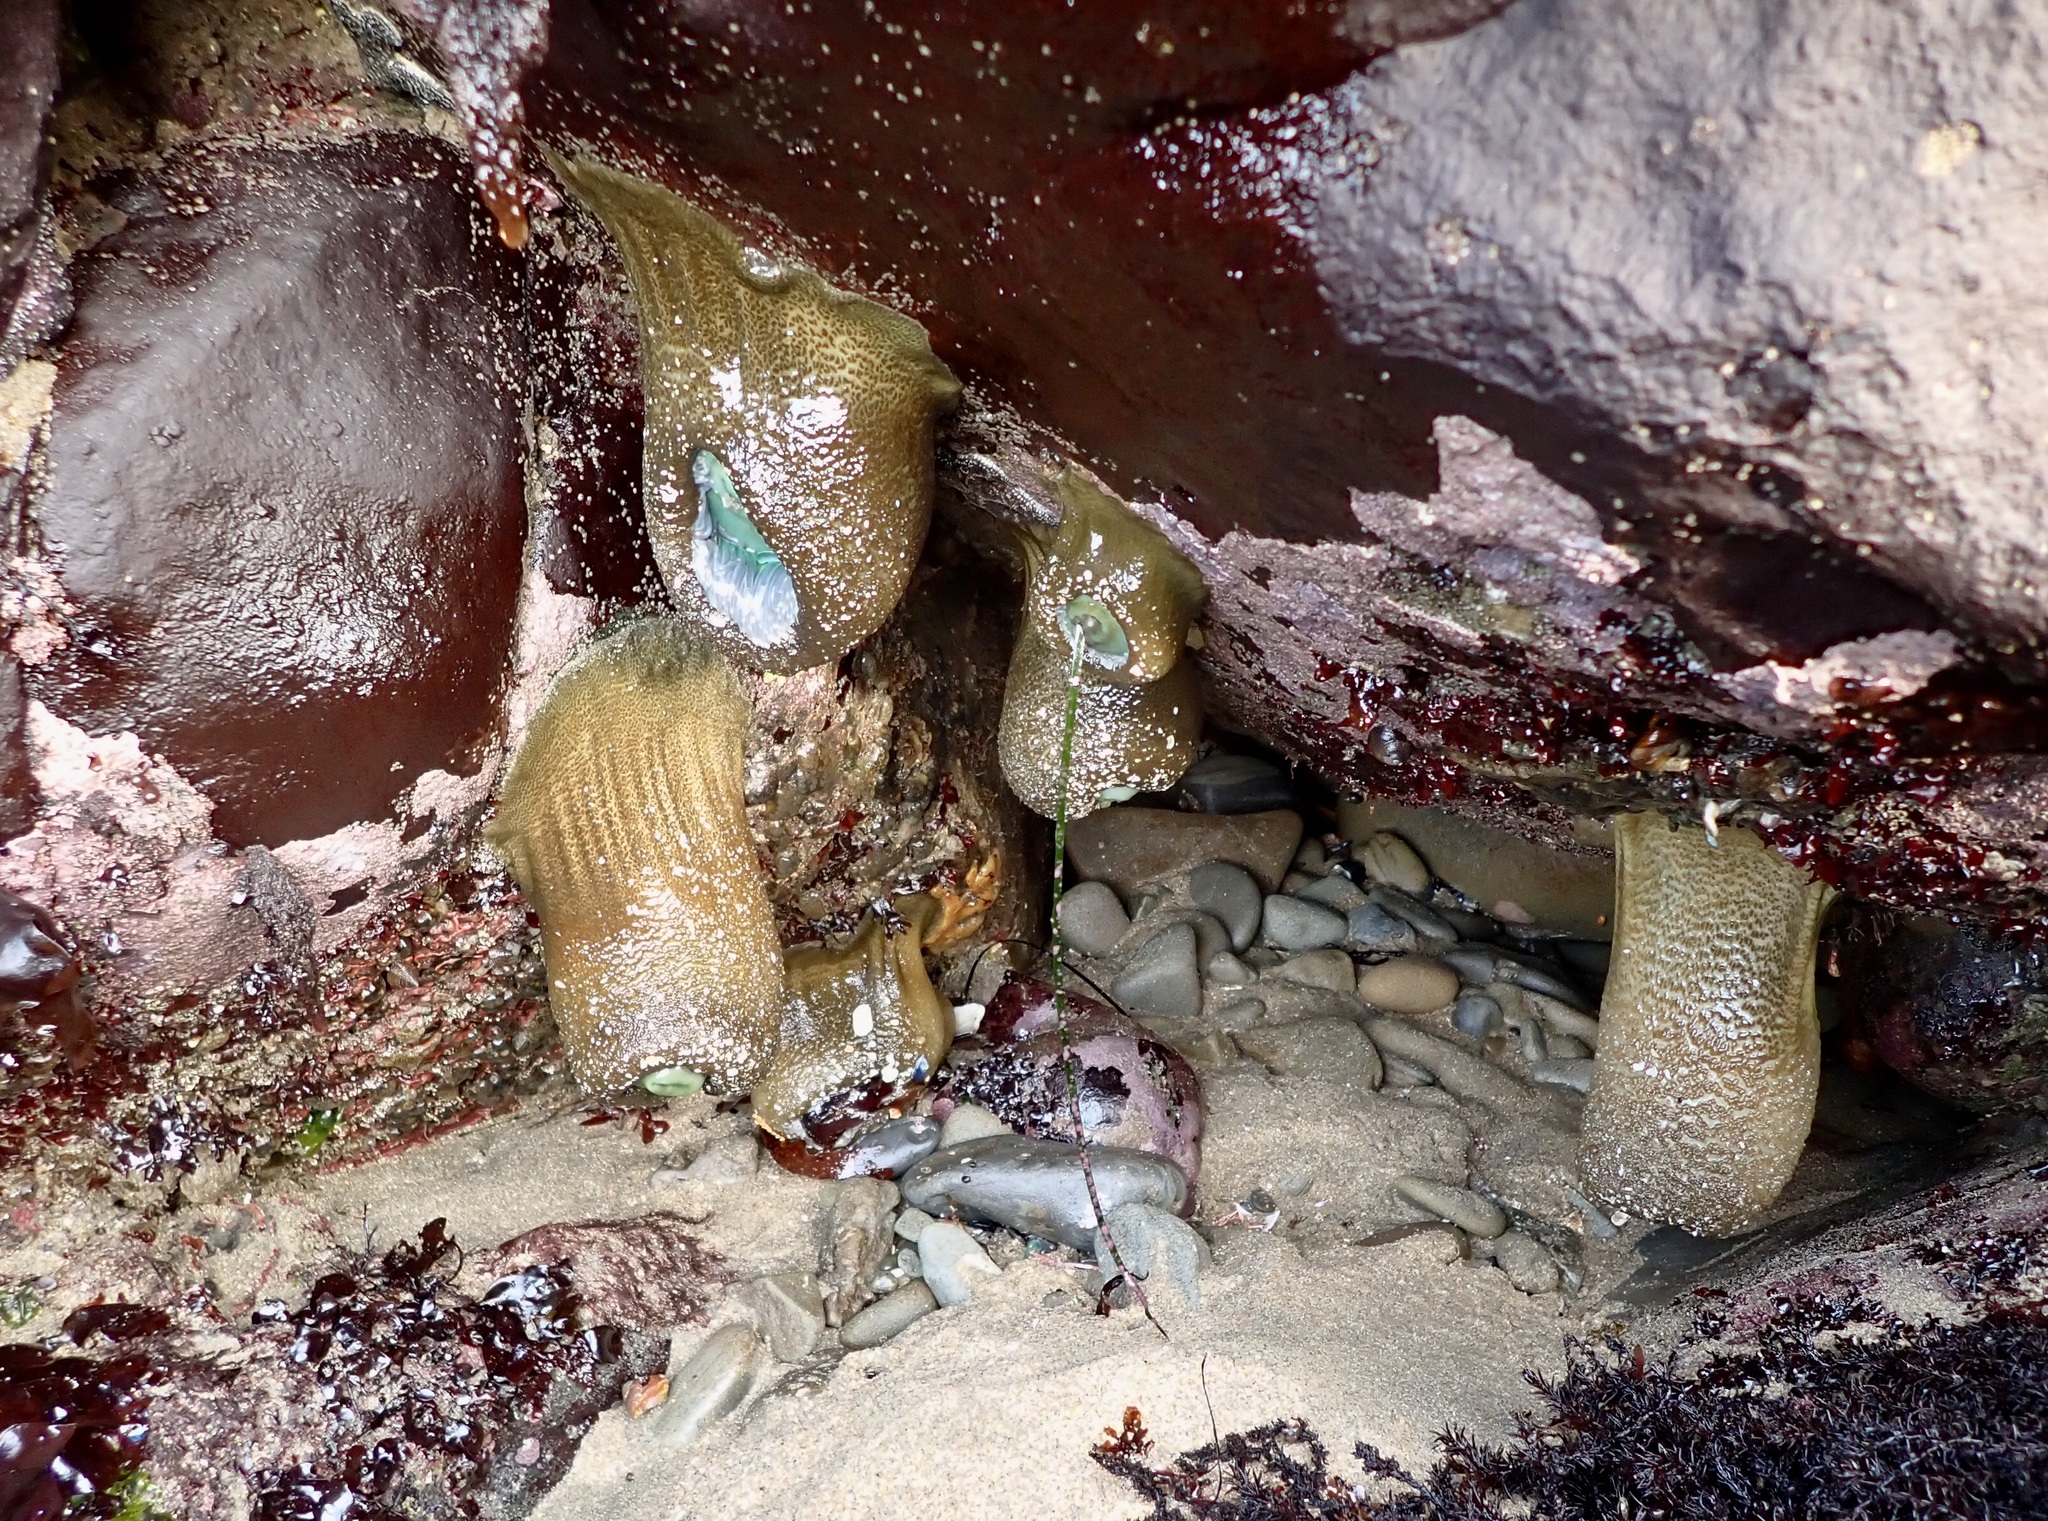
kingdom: Animalia
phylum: Cnidaria
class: Anthozoa
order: Actiniaria
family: Actiniidae
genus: Anthopleura
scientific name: Anthopleura xanthogrammica
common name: Giant green anemone
